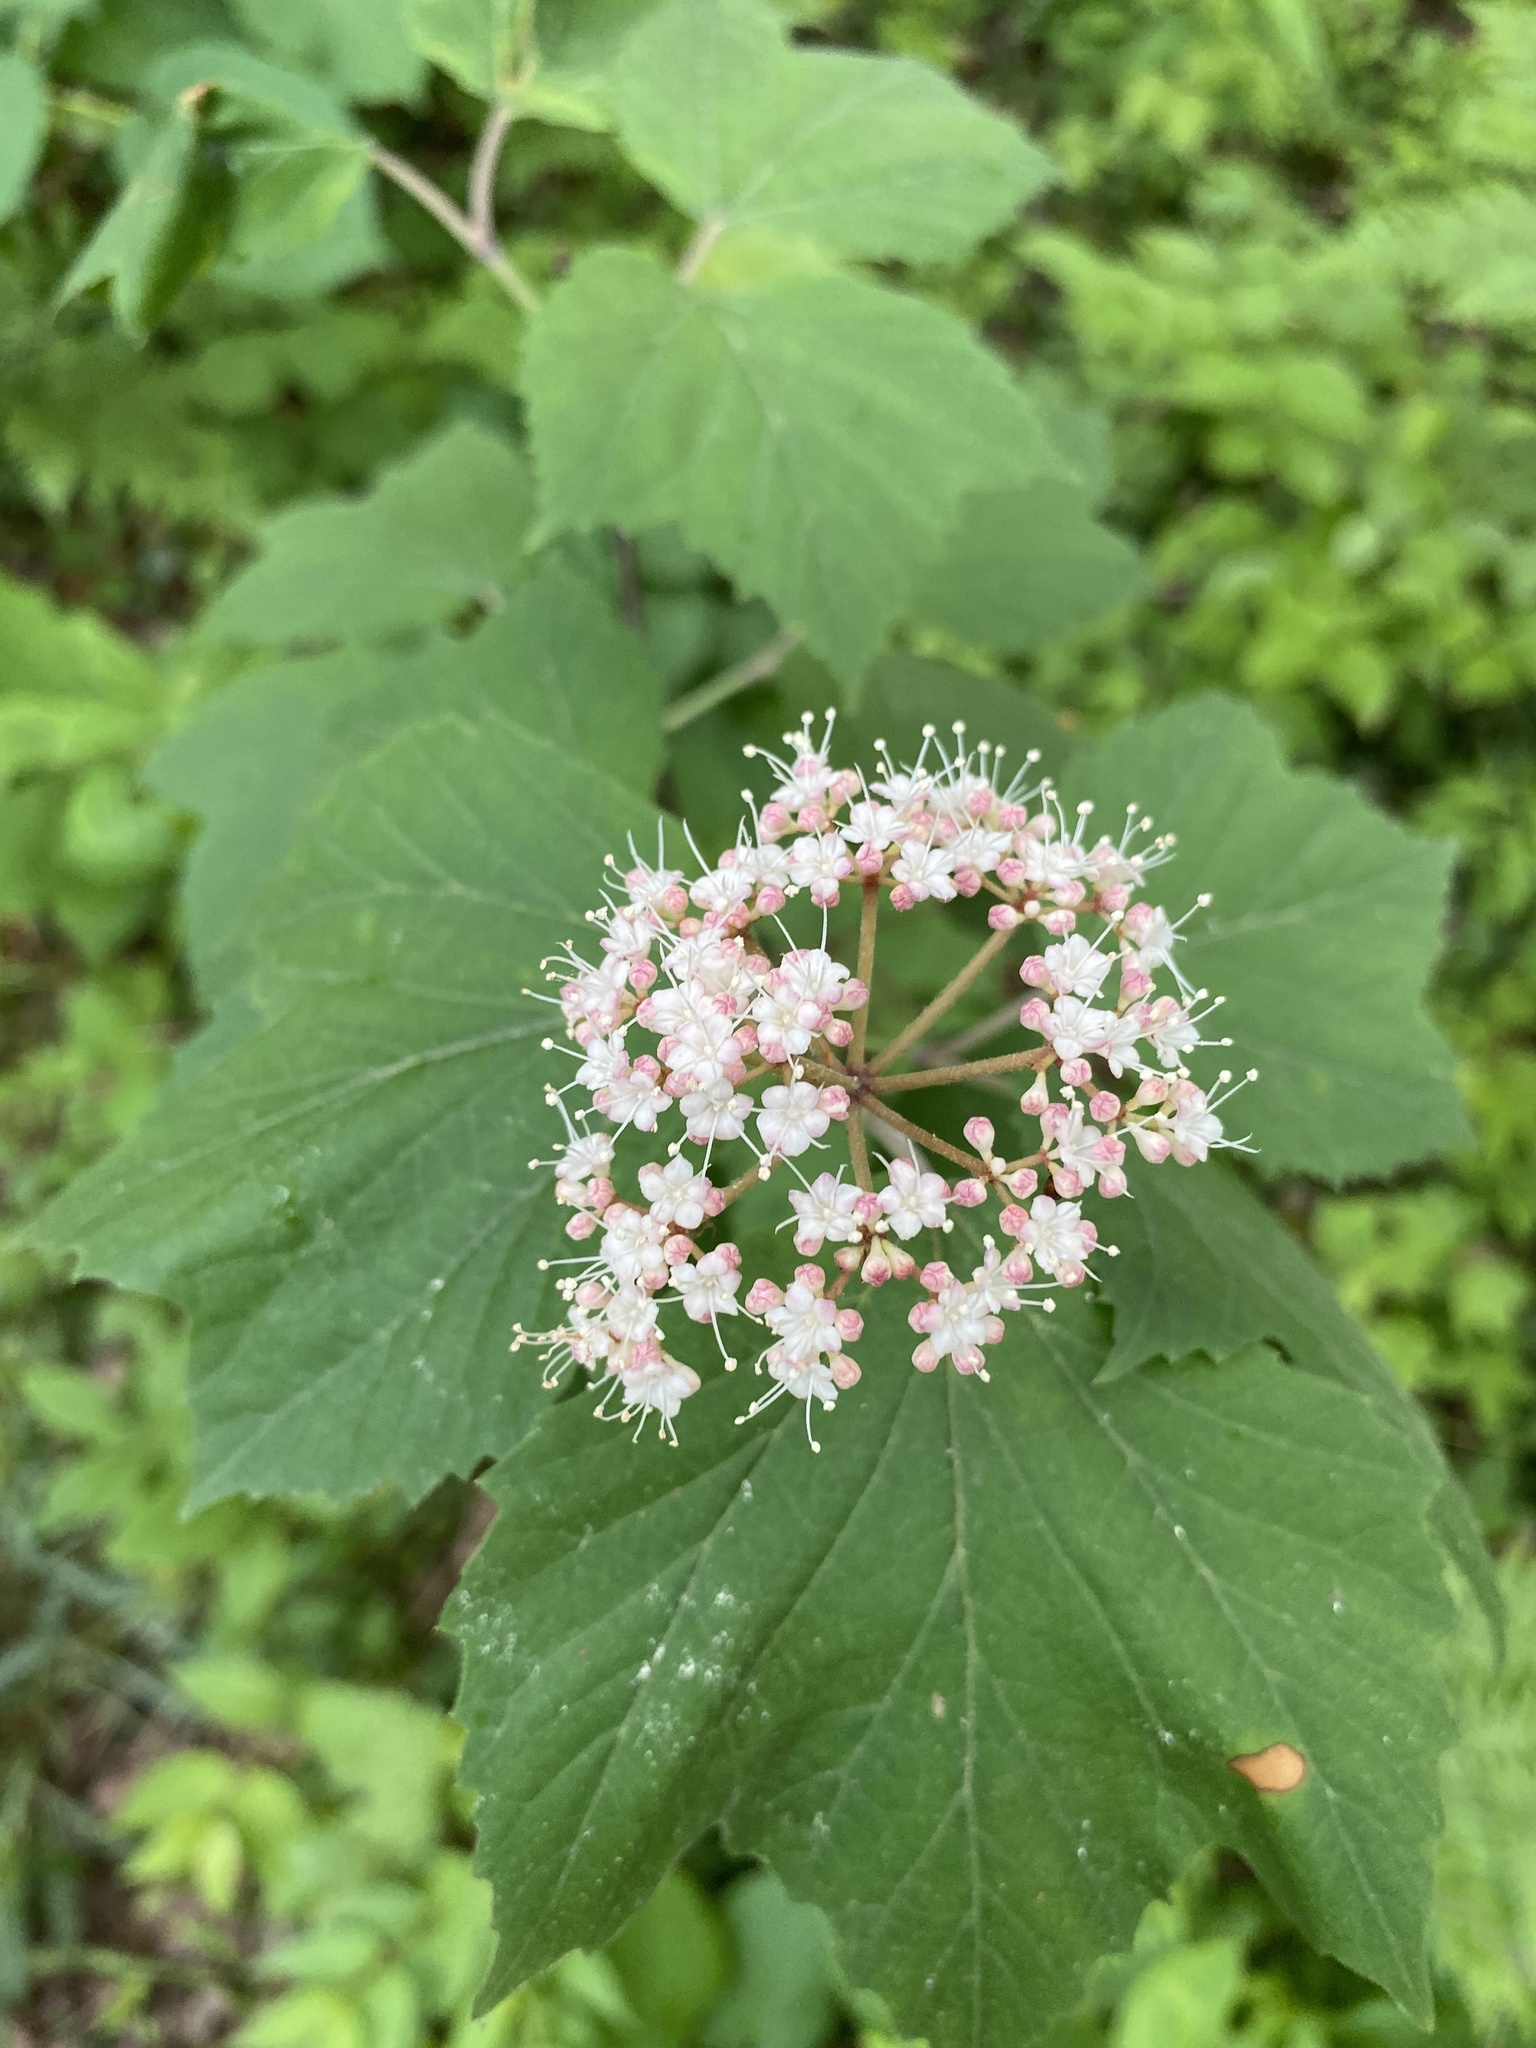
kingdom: Plantae
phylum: Tracheophyta
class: Magnoliopsida
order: Dipsacales
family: Viburnaceae
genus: Viburnum
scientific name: Viburnum acerifolium
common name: Dockmackie
